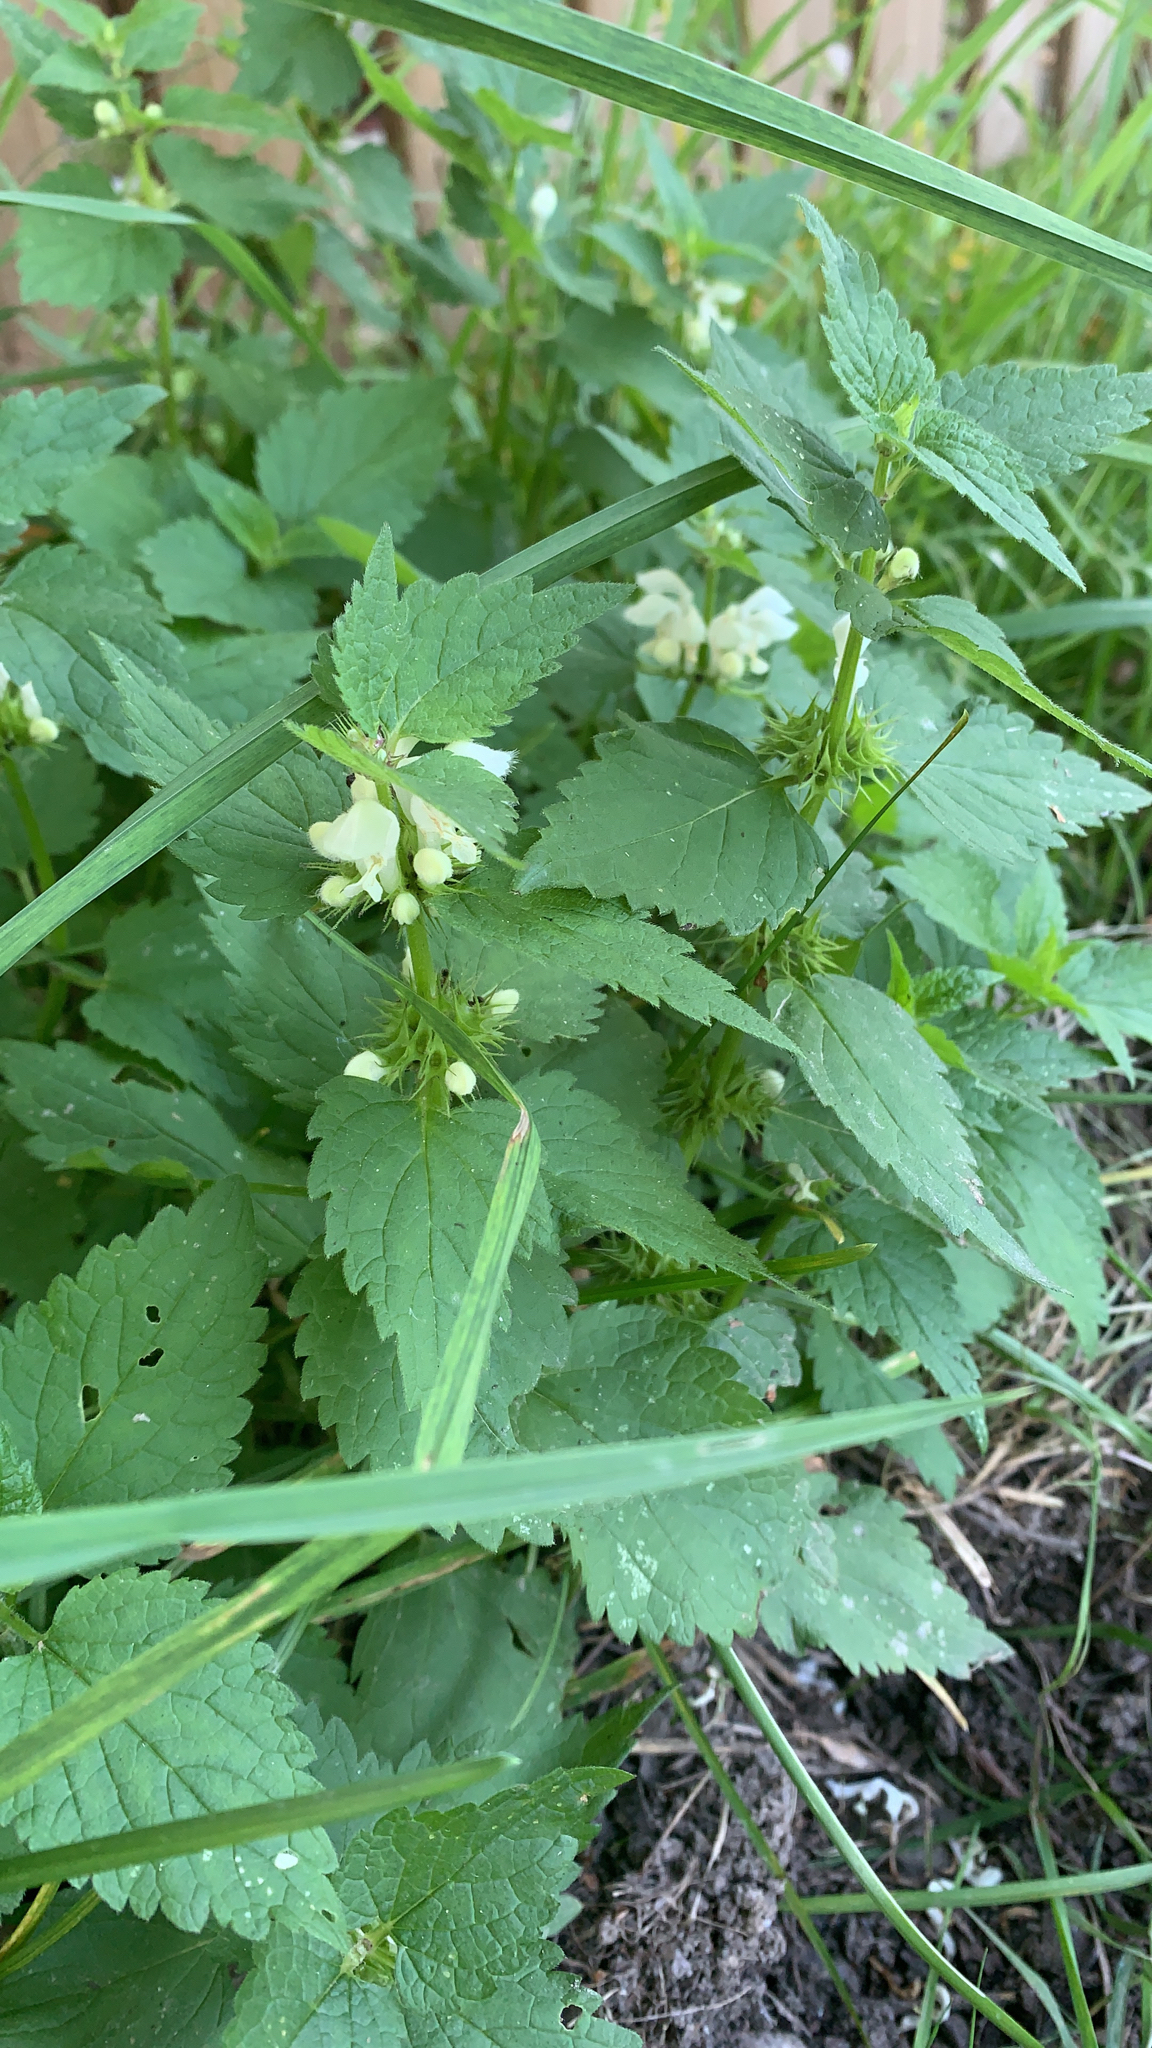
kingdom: Plantae
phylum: Tracheophyta
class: Magnoliopsida
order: Lamiales
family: Lamiaceae
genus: Lamium
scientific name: Lamium album
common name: White dead-nettle
